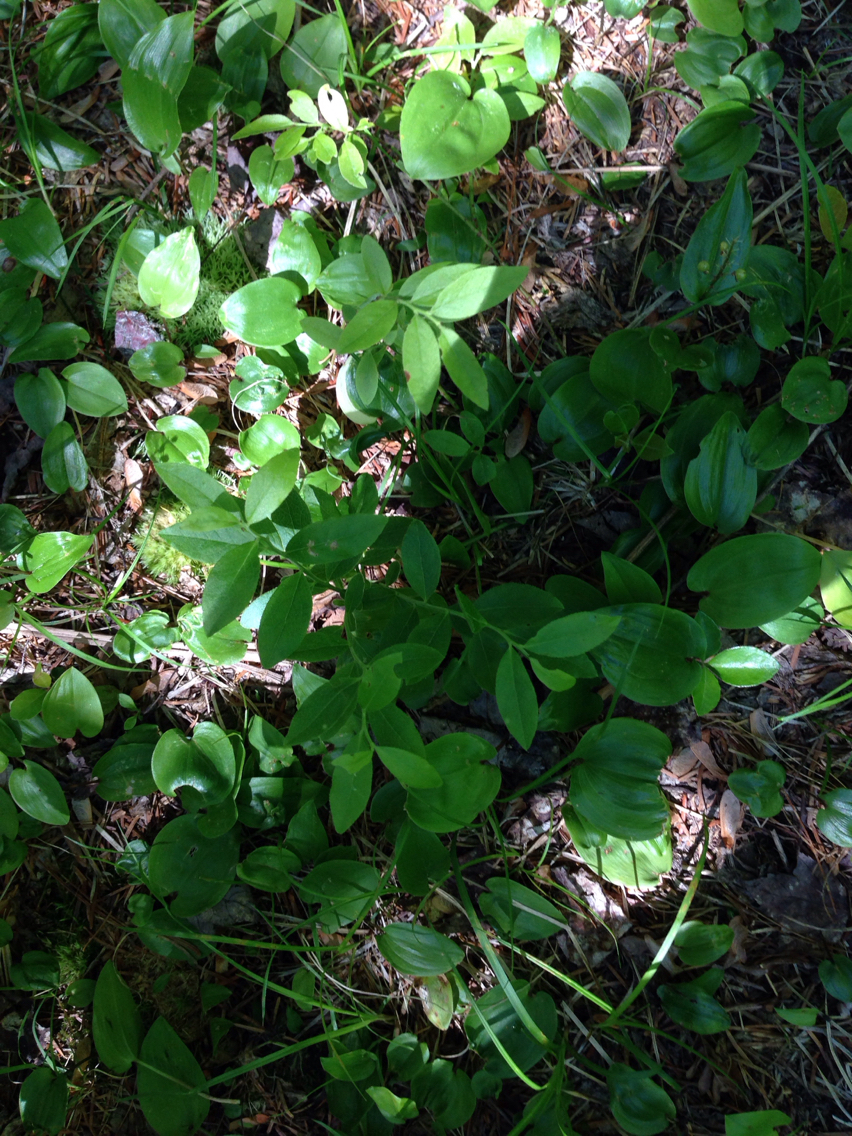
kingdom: Plantae
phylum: Tracheophyta
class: Magnoliopsida
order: Ericales
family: Ericaceae
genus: Vaccinium
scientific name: Vaccinium angustifolium
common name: Early lowbush blueberry
